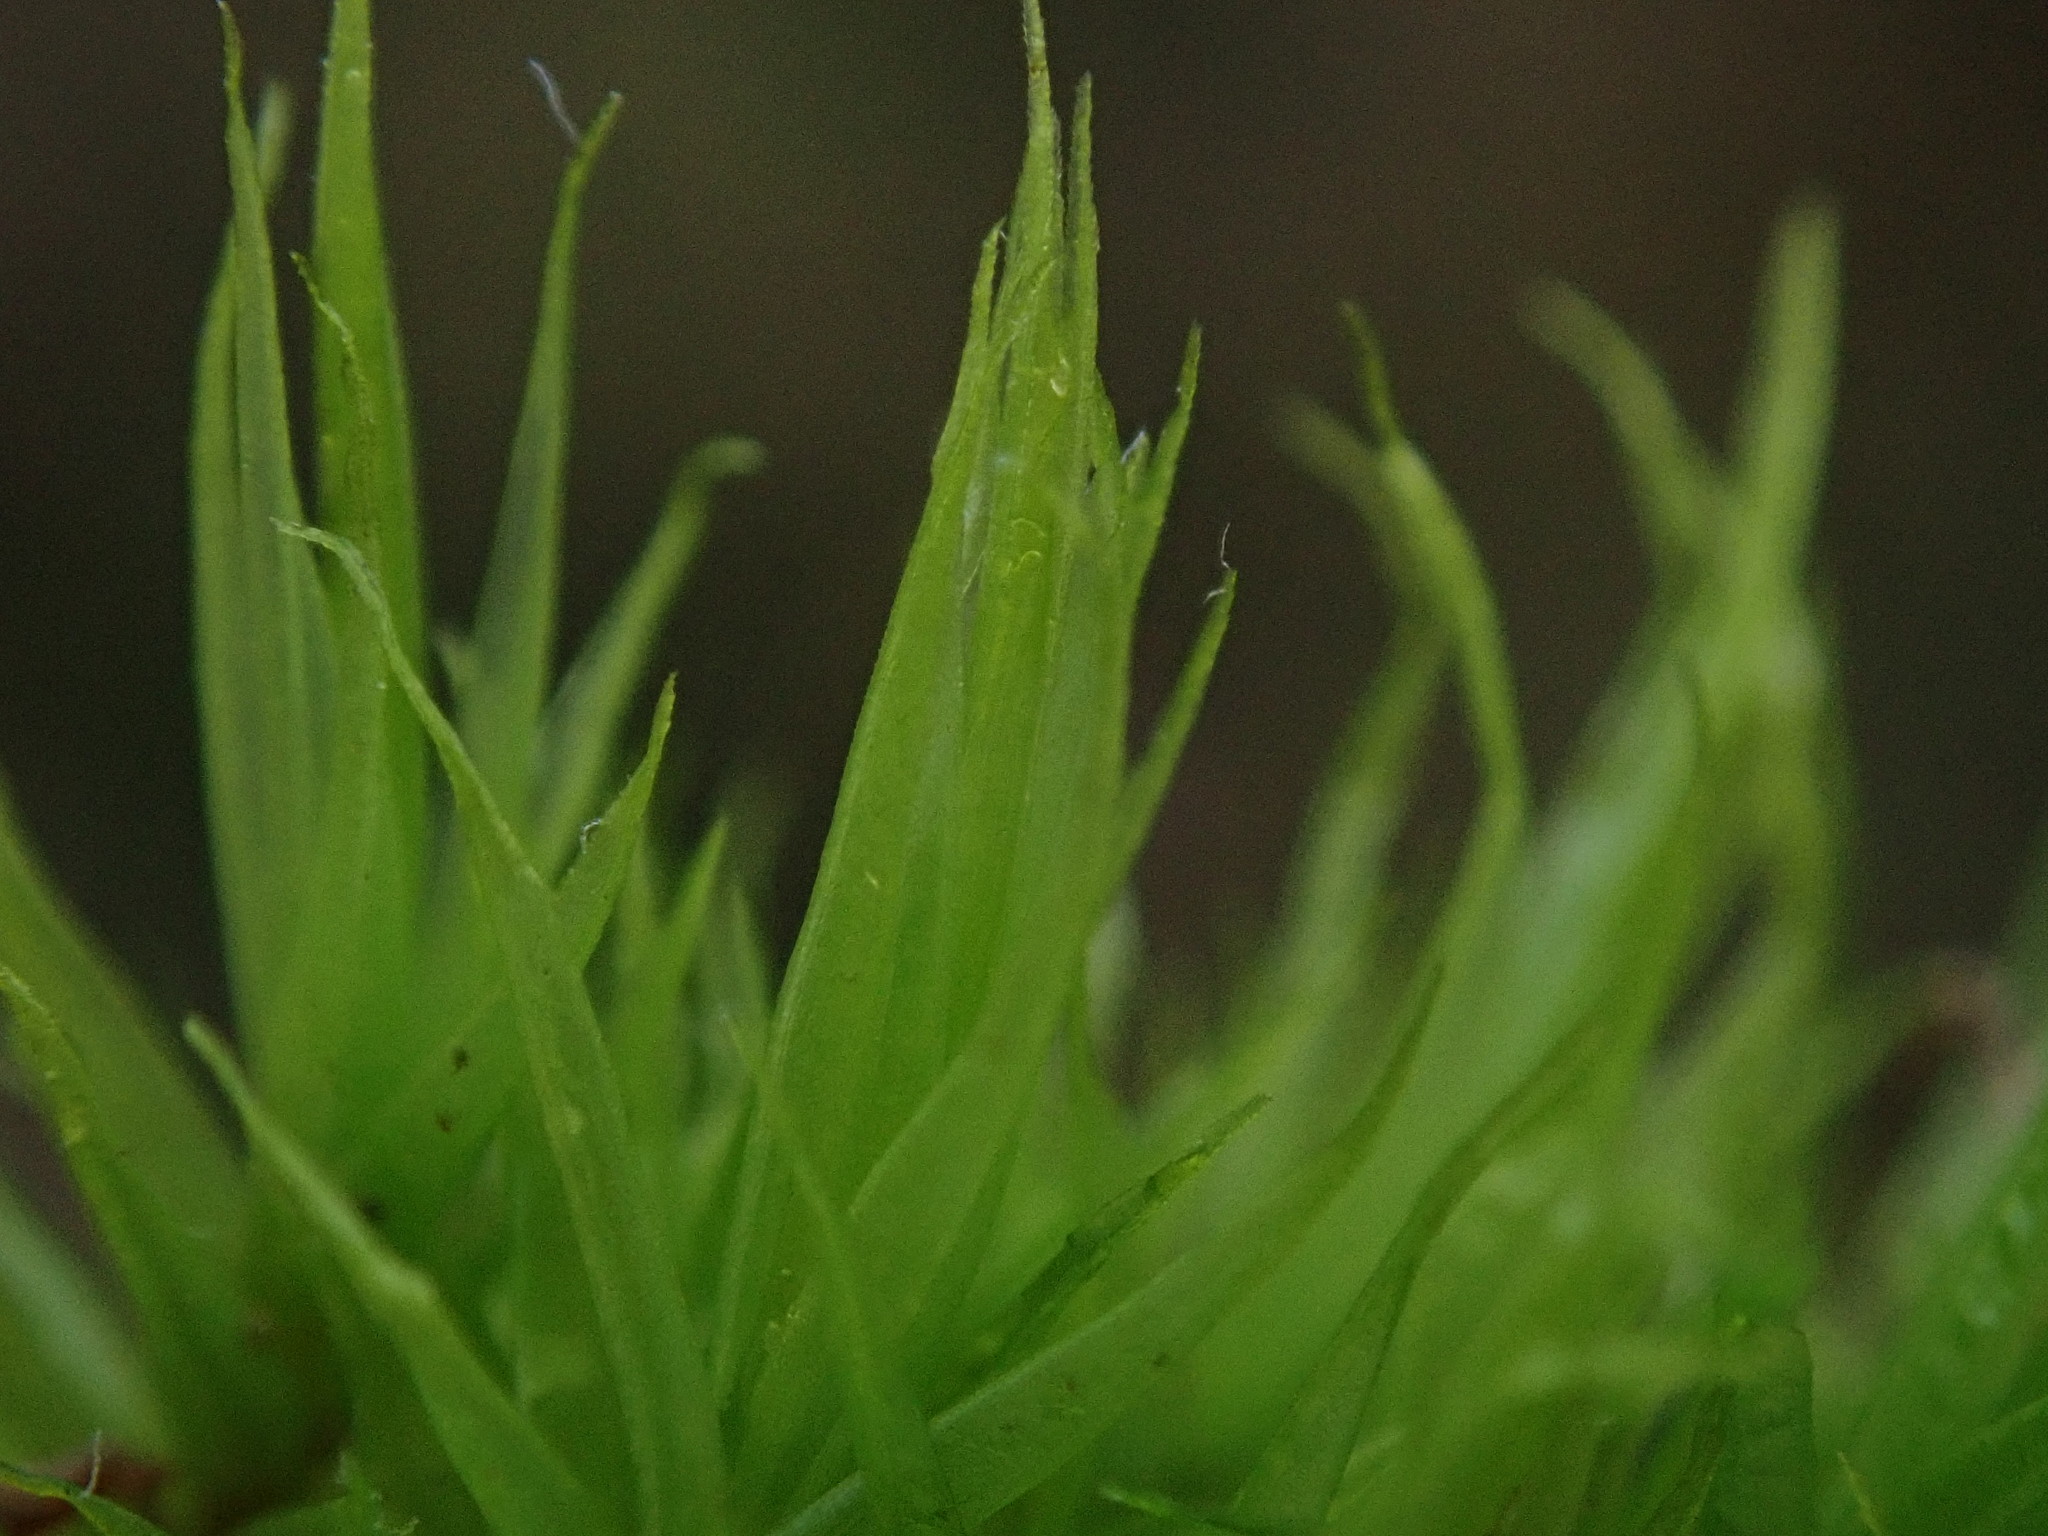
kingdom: Plantae
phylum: Bryophyta
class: Bryopsida
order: Dicranales
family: Dicranaceae
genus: Dicranum
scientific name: Dicranum scoparium
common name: Broom fork-moss
